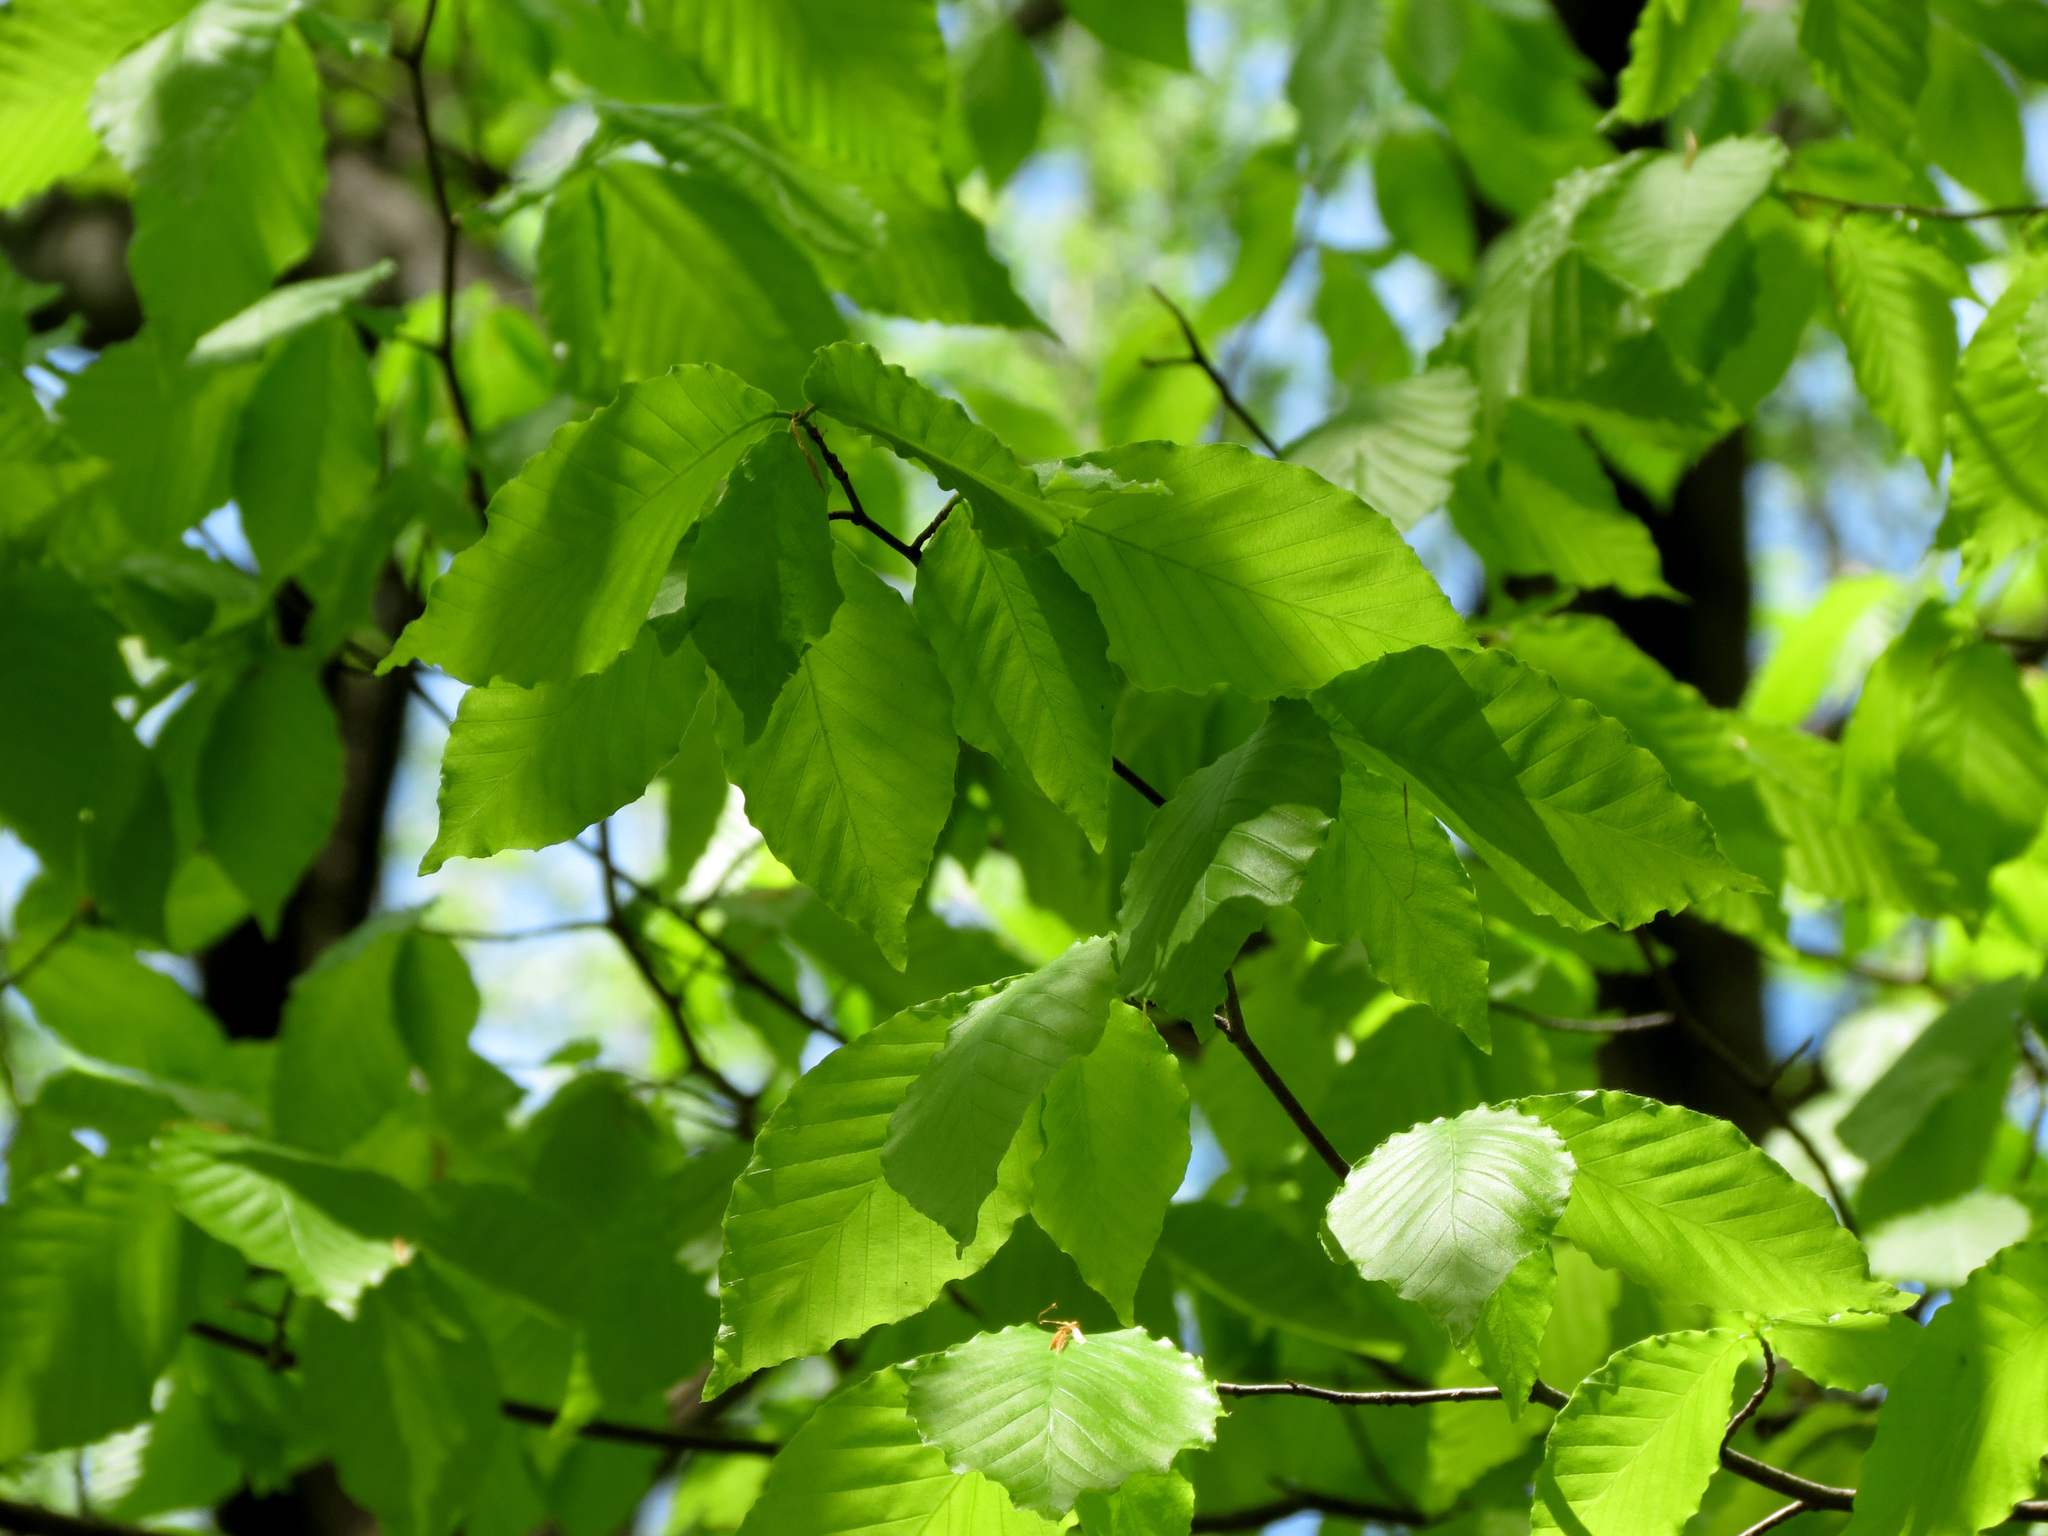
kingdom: Plantae
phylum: Tracheophyta
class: Magnoliopsida
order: Fagales
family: Fagaceae
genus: Fagus
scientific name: Fagus grandifolia
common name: American beech
